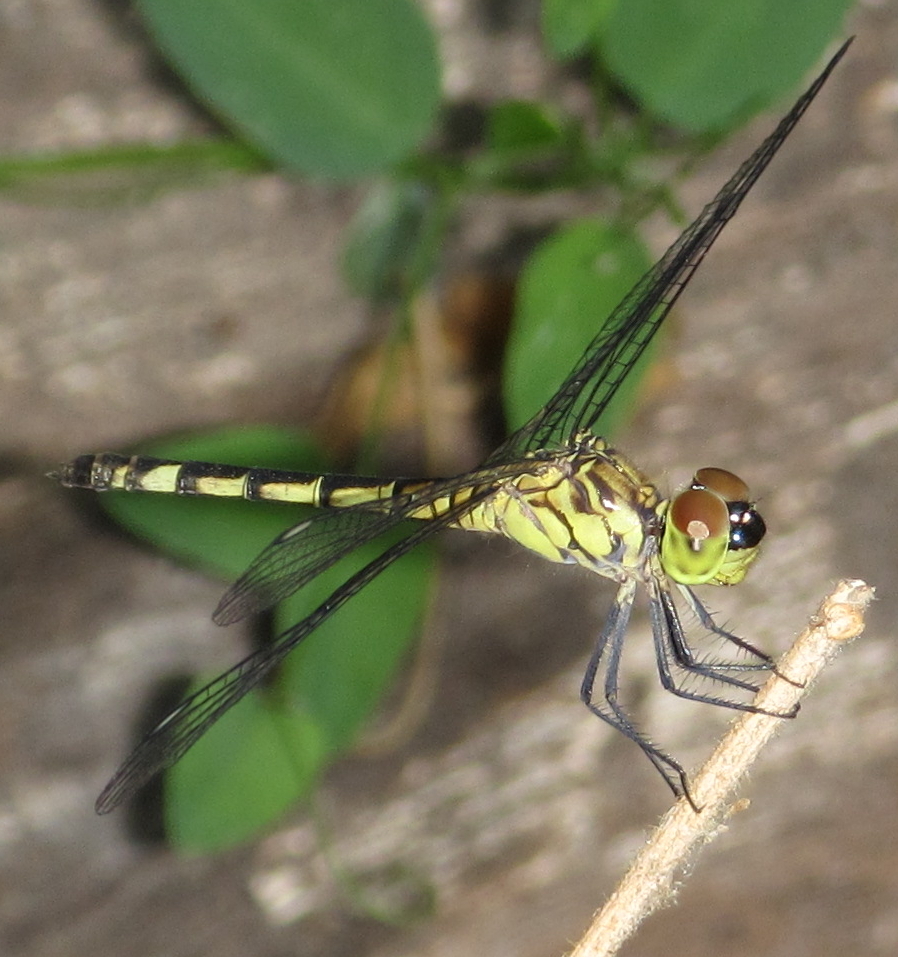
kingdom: Animalia
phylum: Arthropoda
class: Insecta
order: Odonata
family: Libellulidae
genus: Chalcostephia
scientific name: Chalcostephia flavifrons
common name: Inspector
